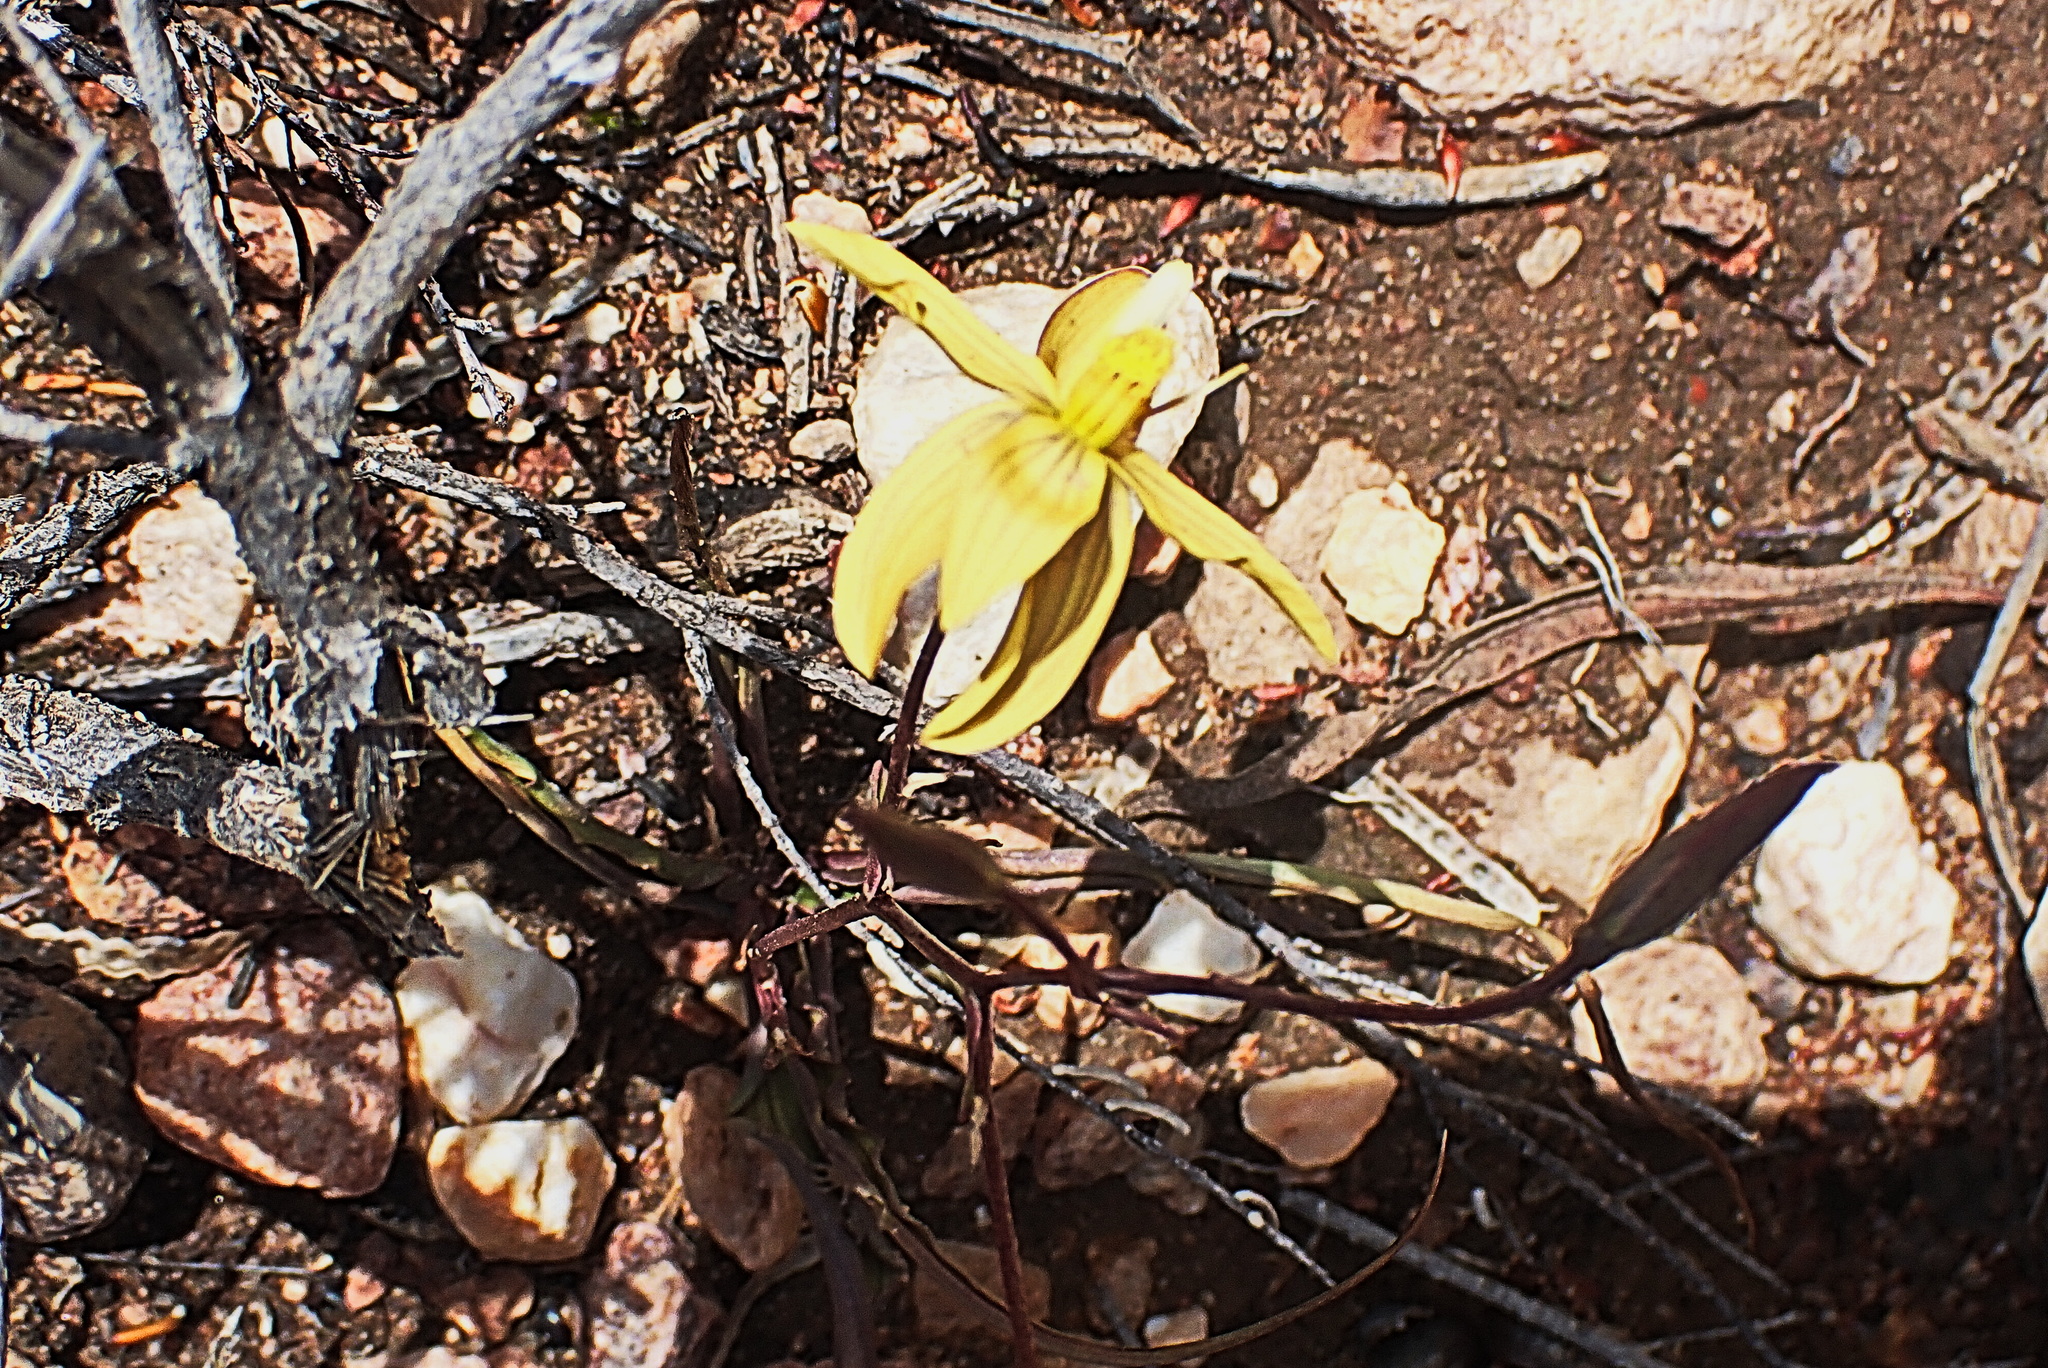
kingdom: Plantae
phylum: Tracheophyta
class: Magnoliopsida
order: Malpighiales
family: Linaceae
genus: Linum
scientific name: Linum africanum
